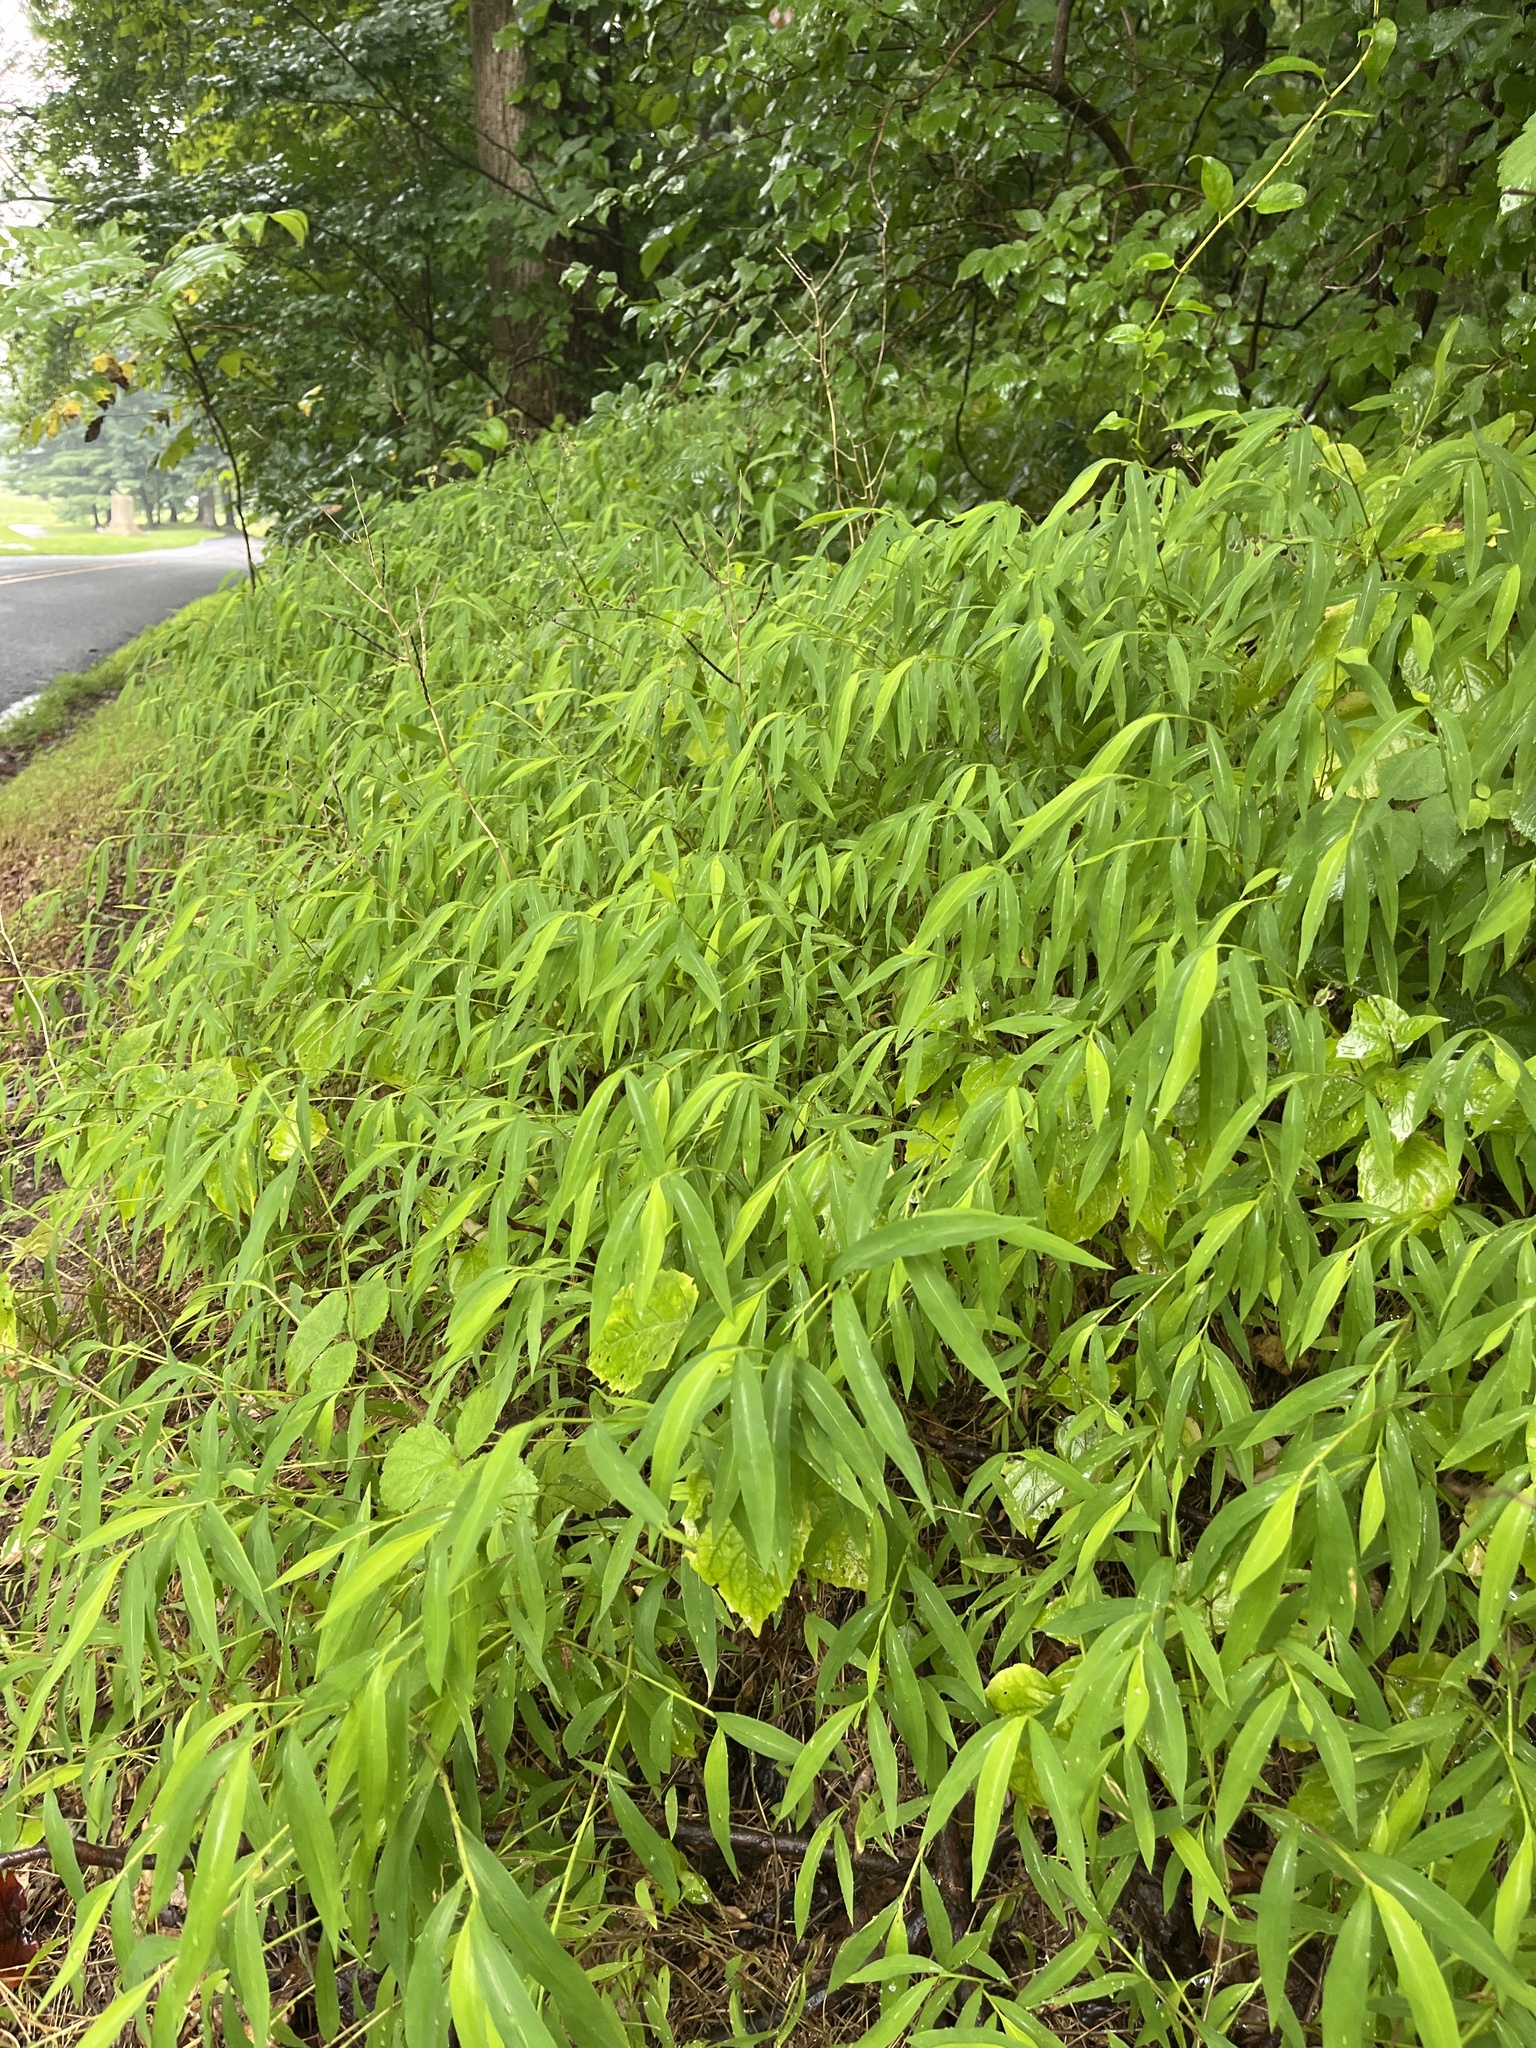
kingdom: Plantae
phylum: Tracheophyta
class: Liliopsida
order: Poales
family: Poaceae
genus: Microstegium
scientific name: Microstegium vimineum
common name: Japanese stiltgrass
